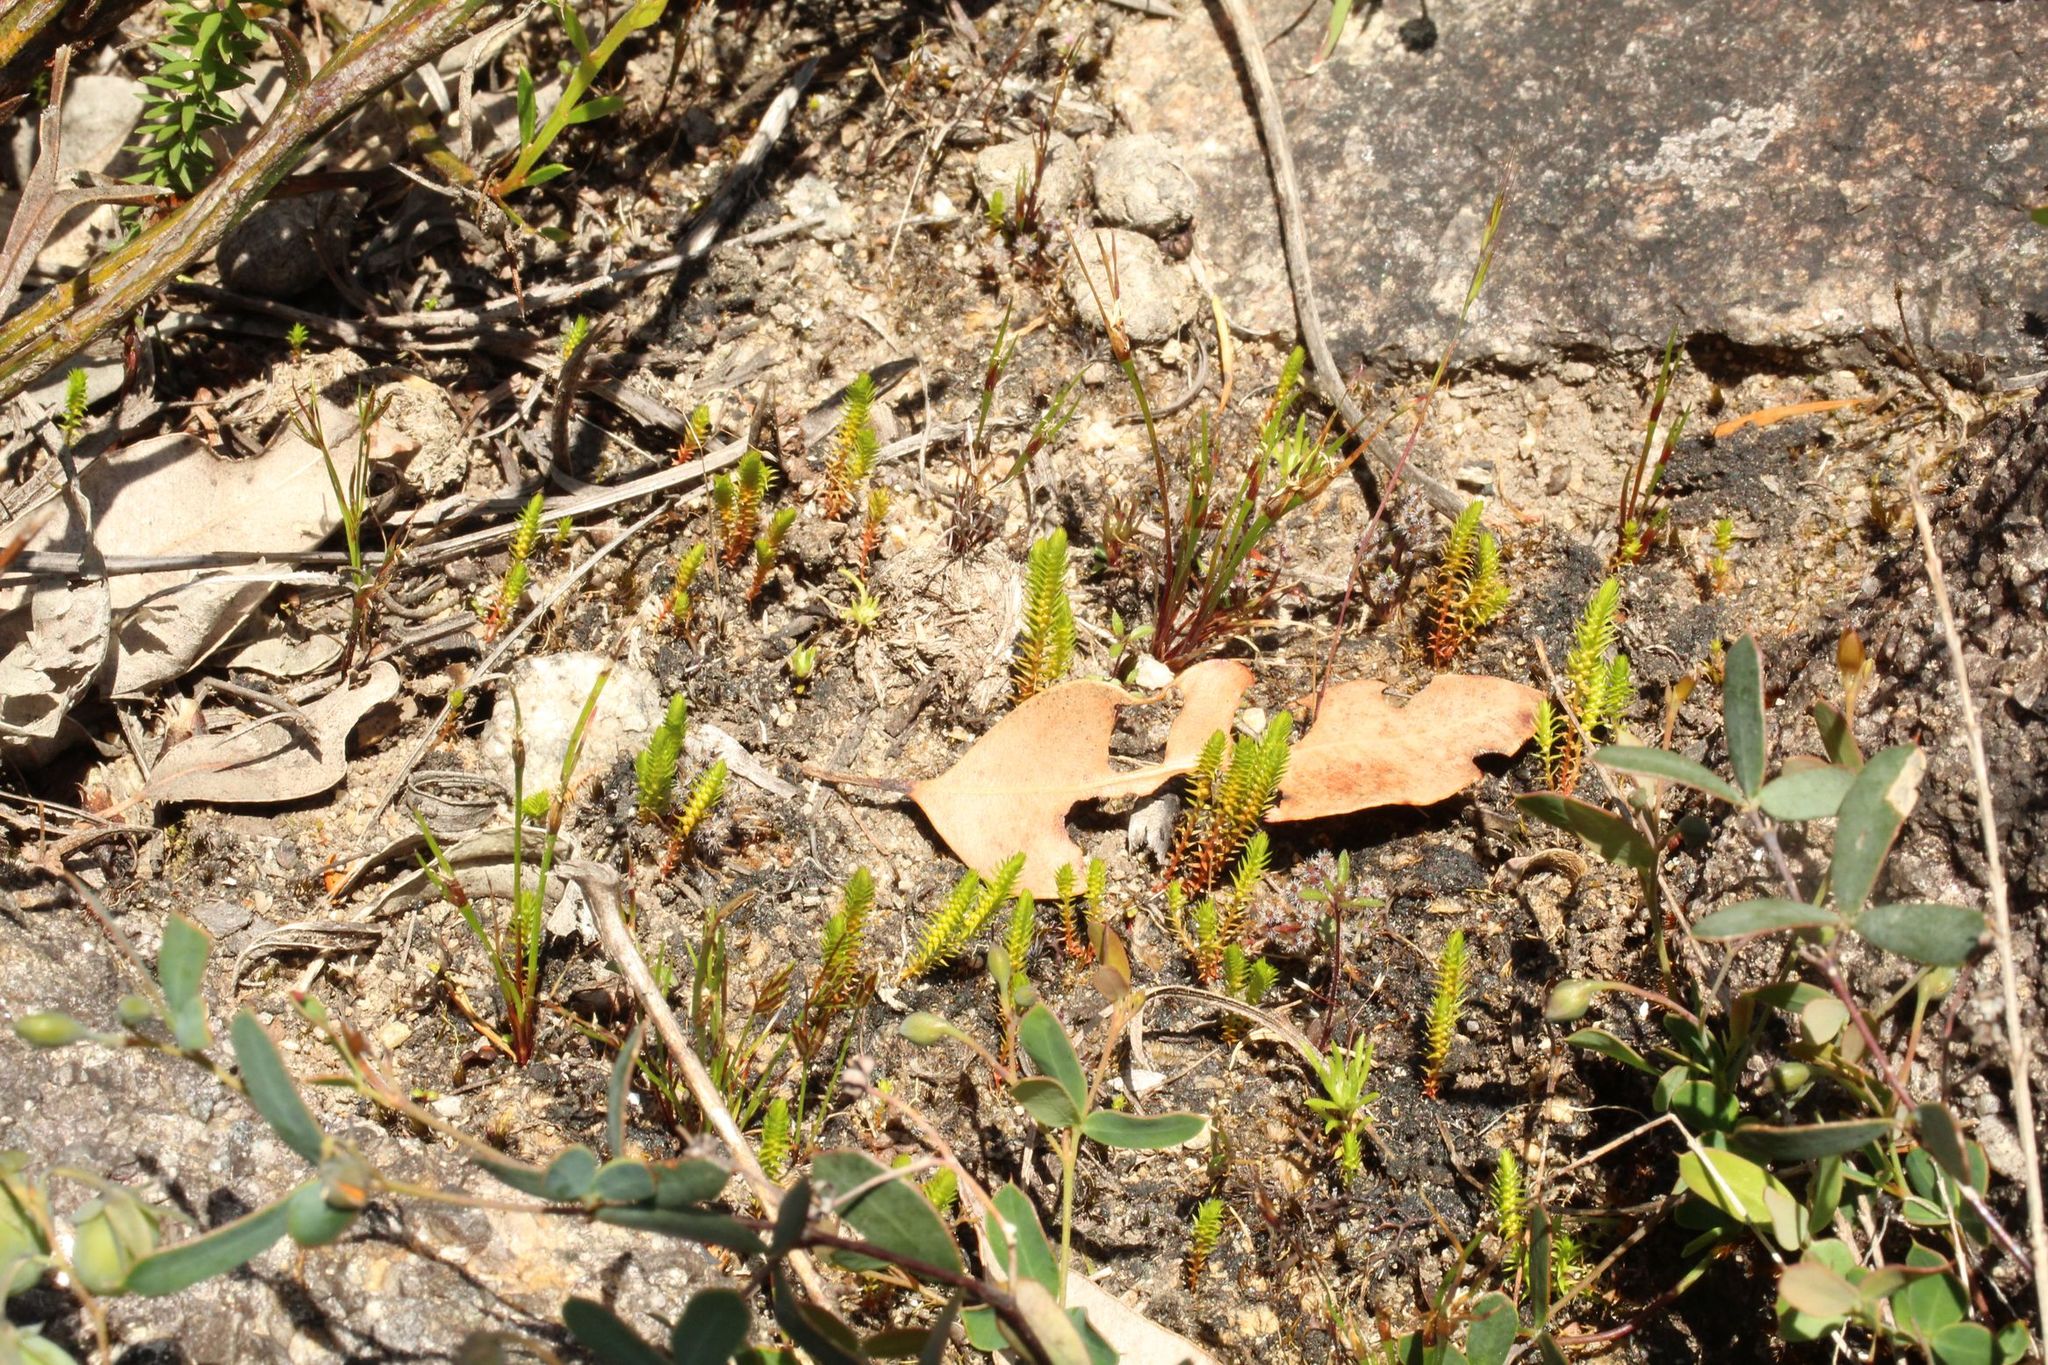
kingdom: Plantae
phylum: Tracheophyta
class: Lycopodiopsida
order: Selaginellales
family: Selaginellaceae
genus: Selaginella
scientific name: Selaginella gracillima
